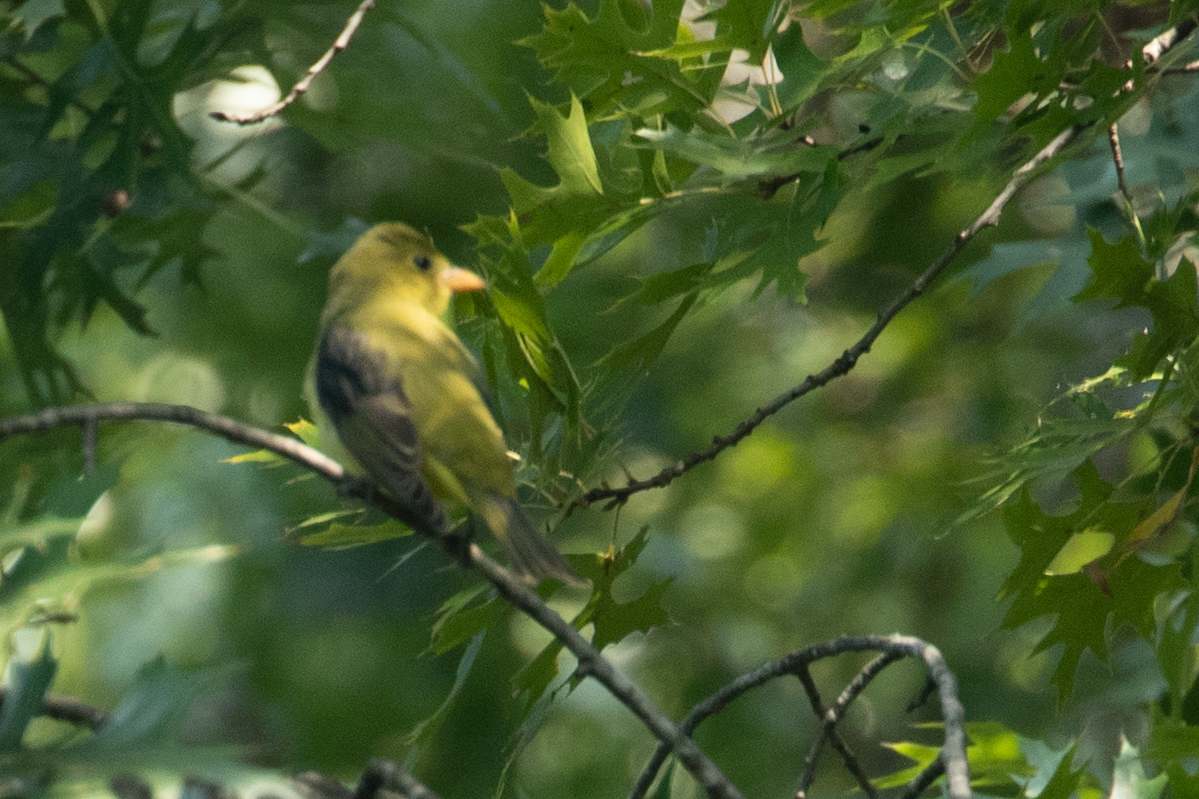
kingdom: Animalia
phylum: Chordata
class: Aves
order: Passeriformes
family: Cardinalidae
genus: Piranga
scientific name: Piranga olivacea
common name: Scarlet tanager
